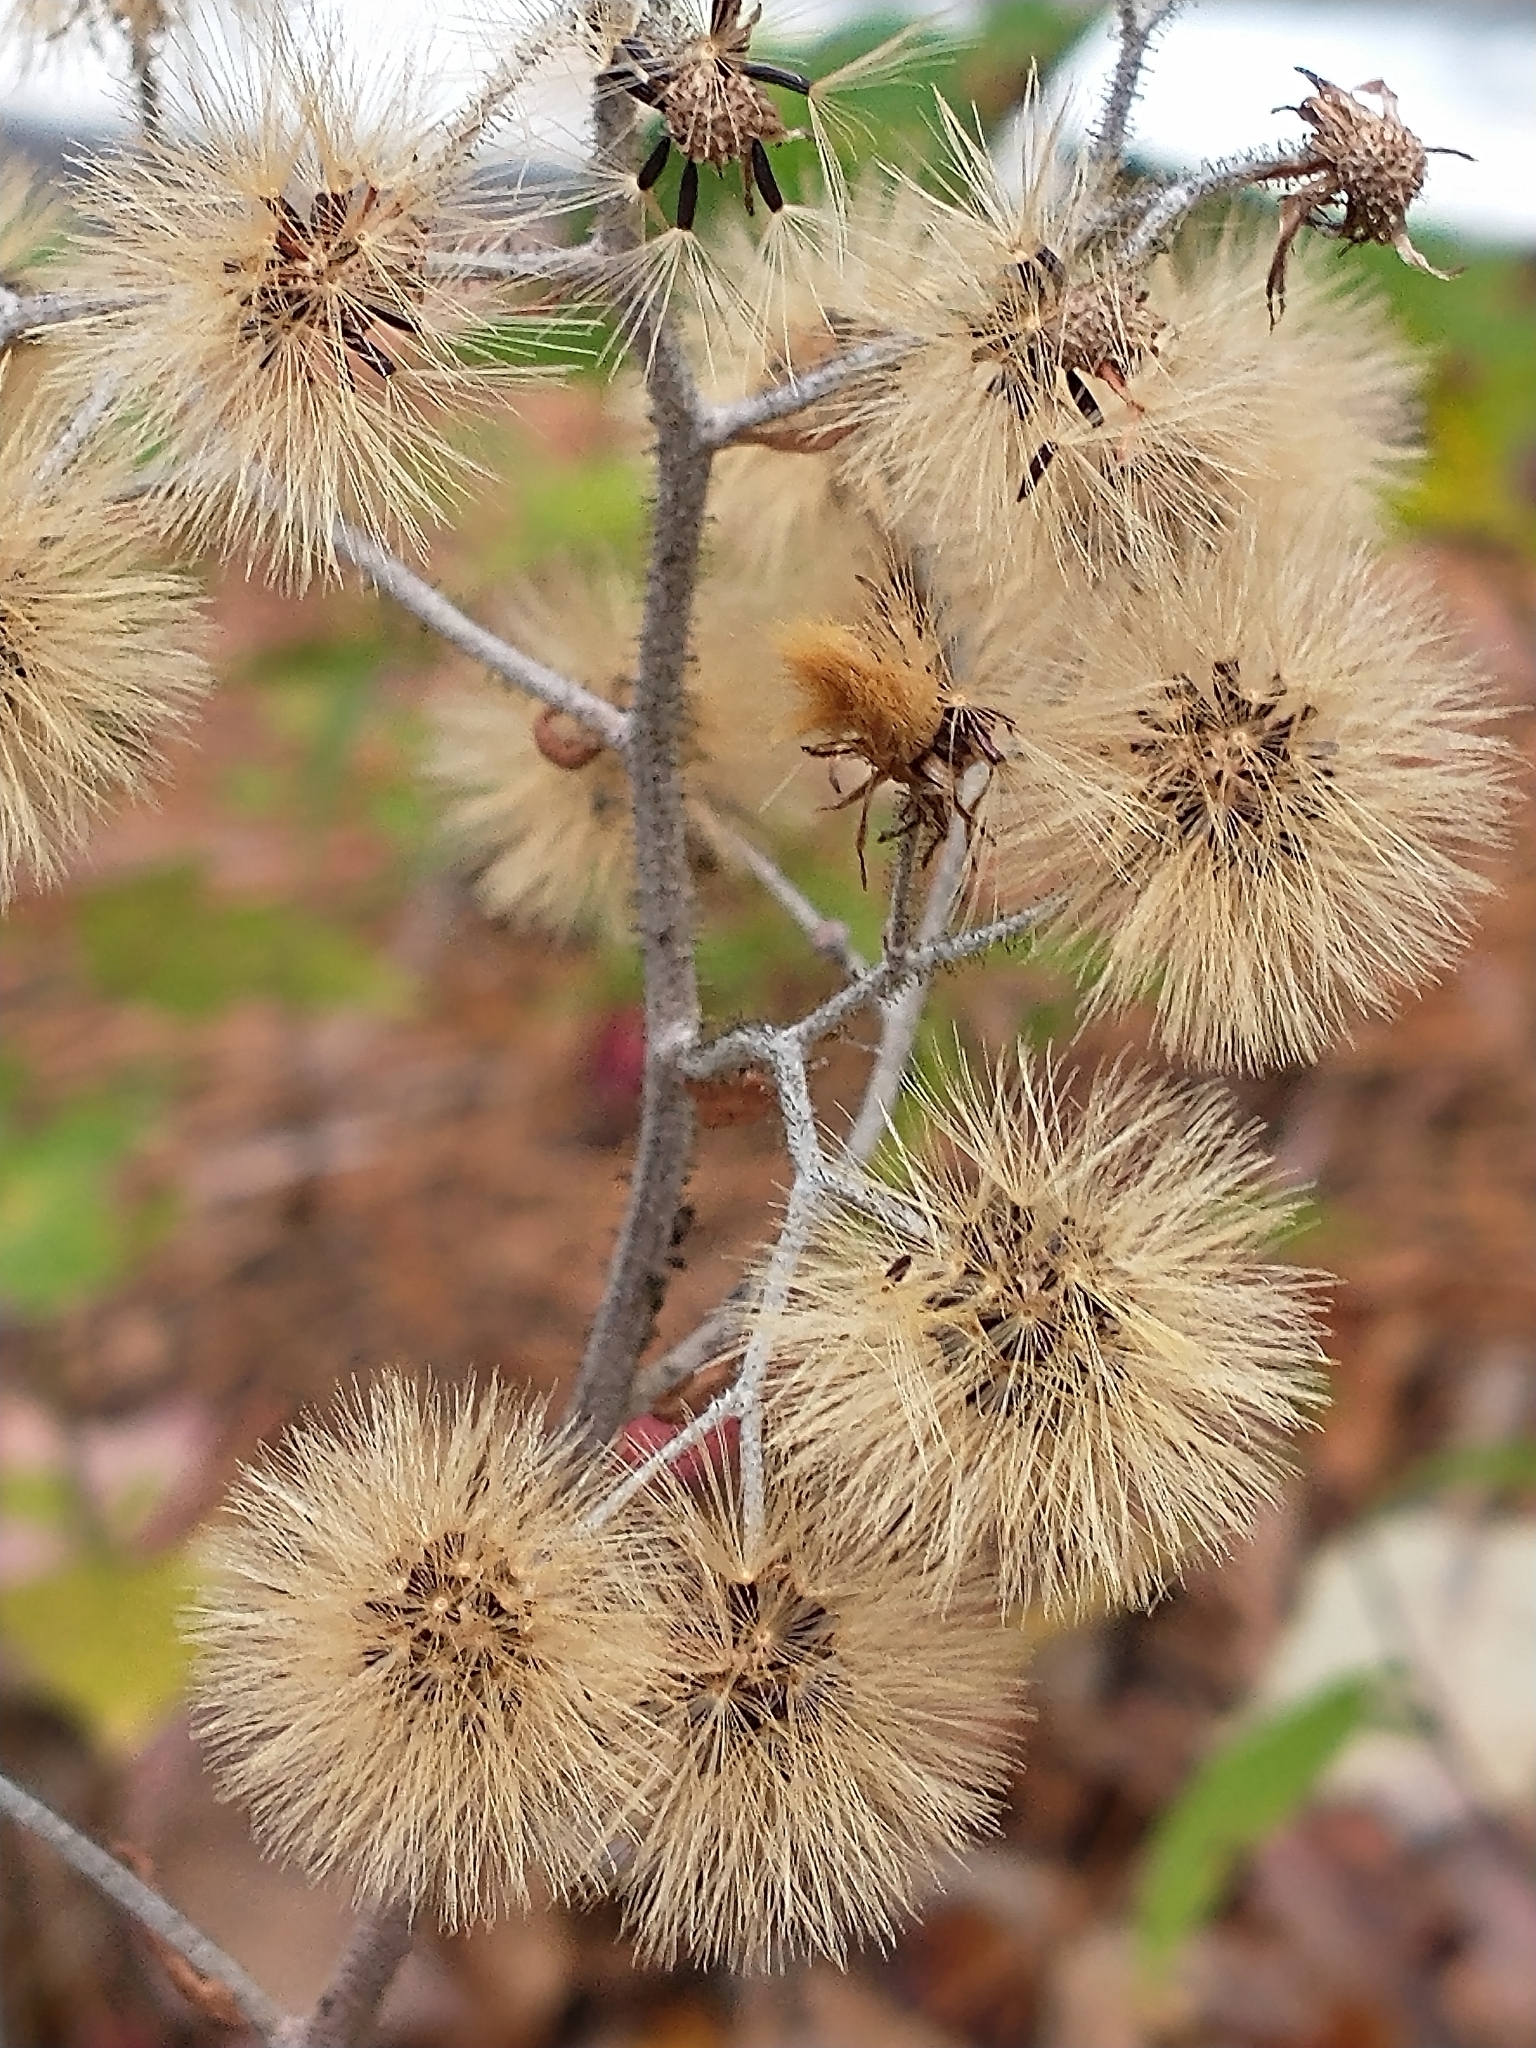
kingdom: Plantae
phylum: Tracheophyta
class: Magnoliopsida
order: Asterales
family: Asteraceae
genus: Hieracium
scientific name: Hieracium scabrum
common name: Rough hawkweed
